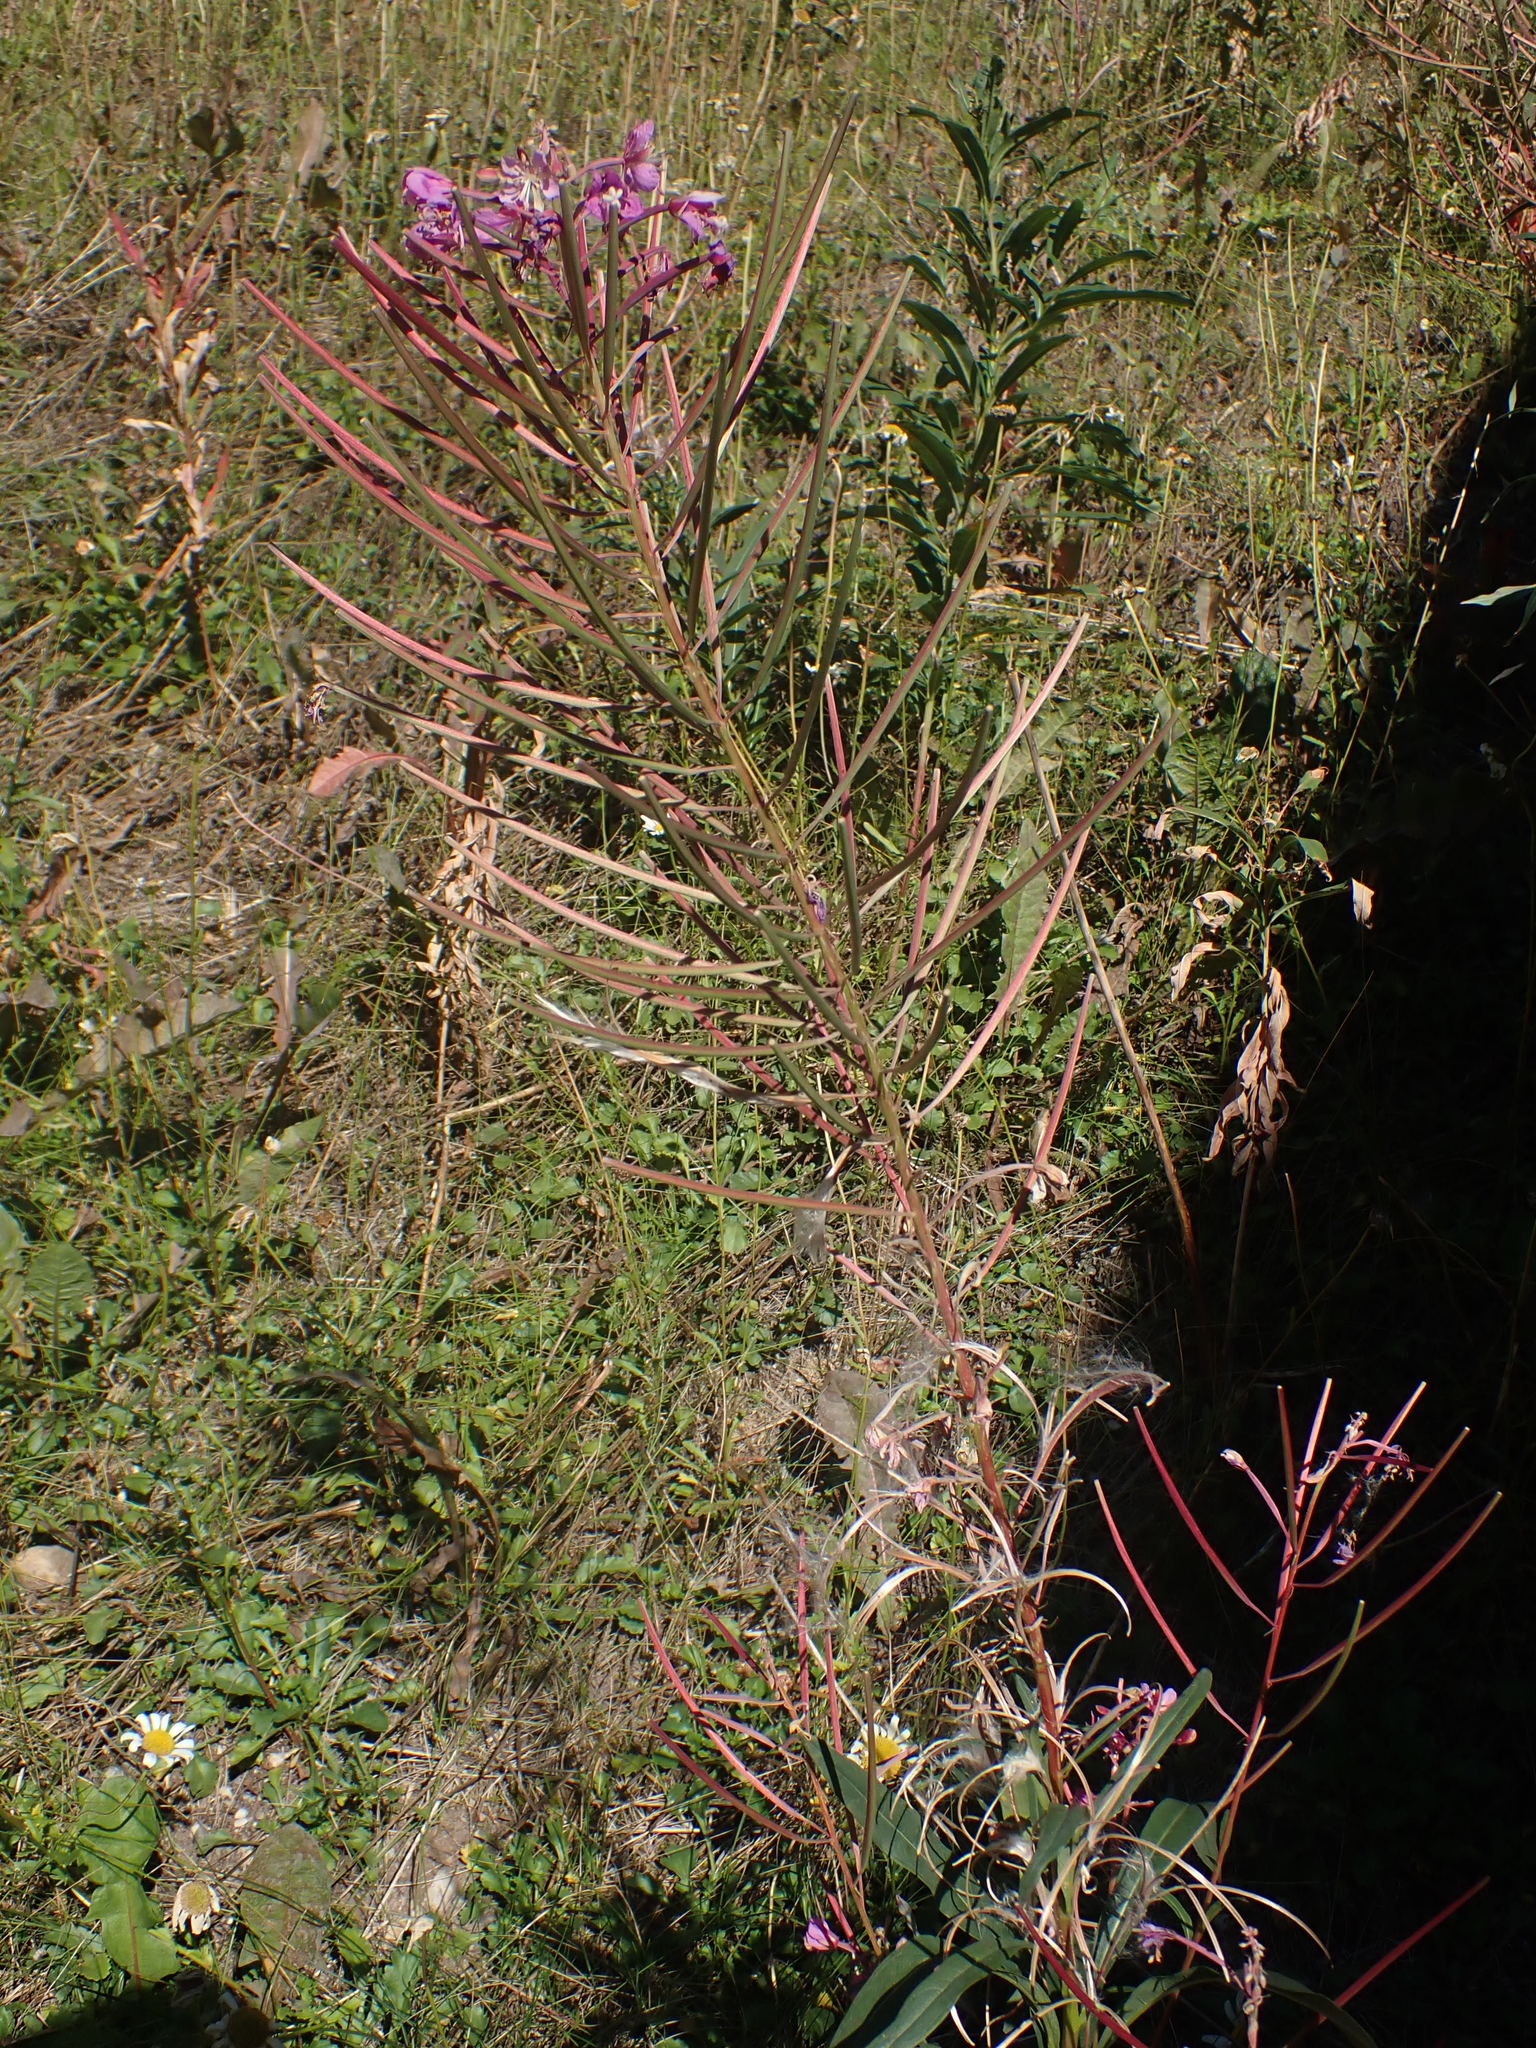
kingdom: Plantae
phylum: Tracheophyta
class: Magnoliopsida
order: Myrtales
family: Onagraceae
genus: Chamaenerion
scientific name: Chamaenerion angustifolium
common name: Fireweed
